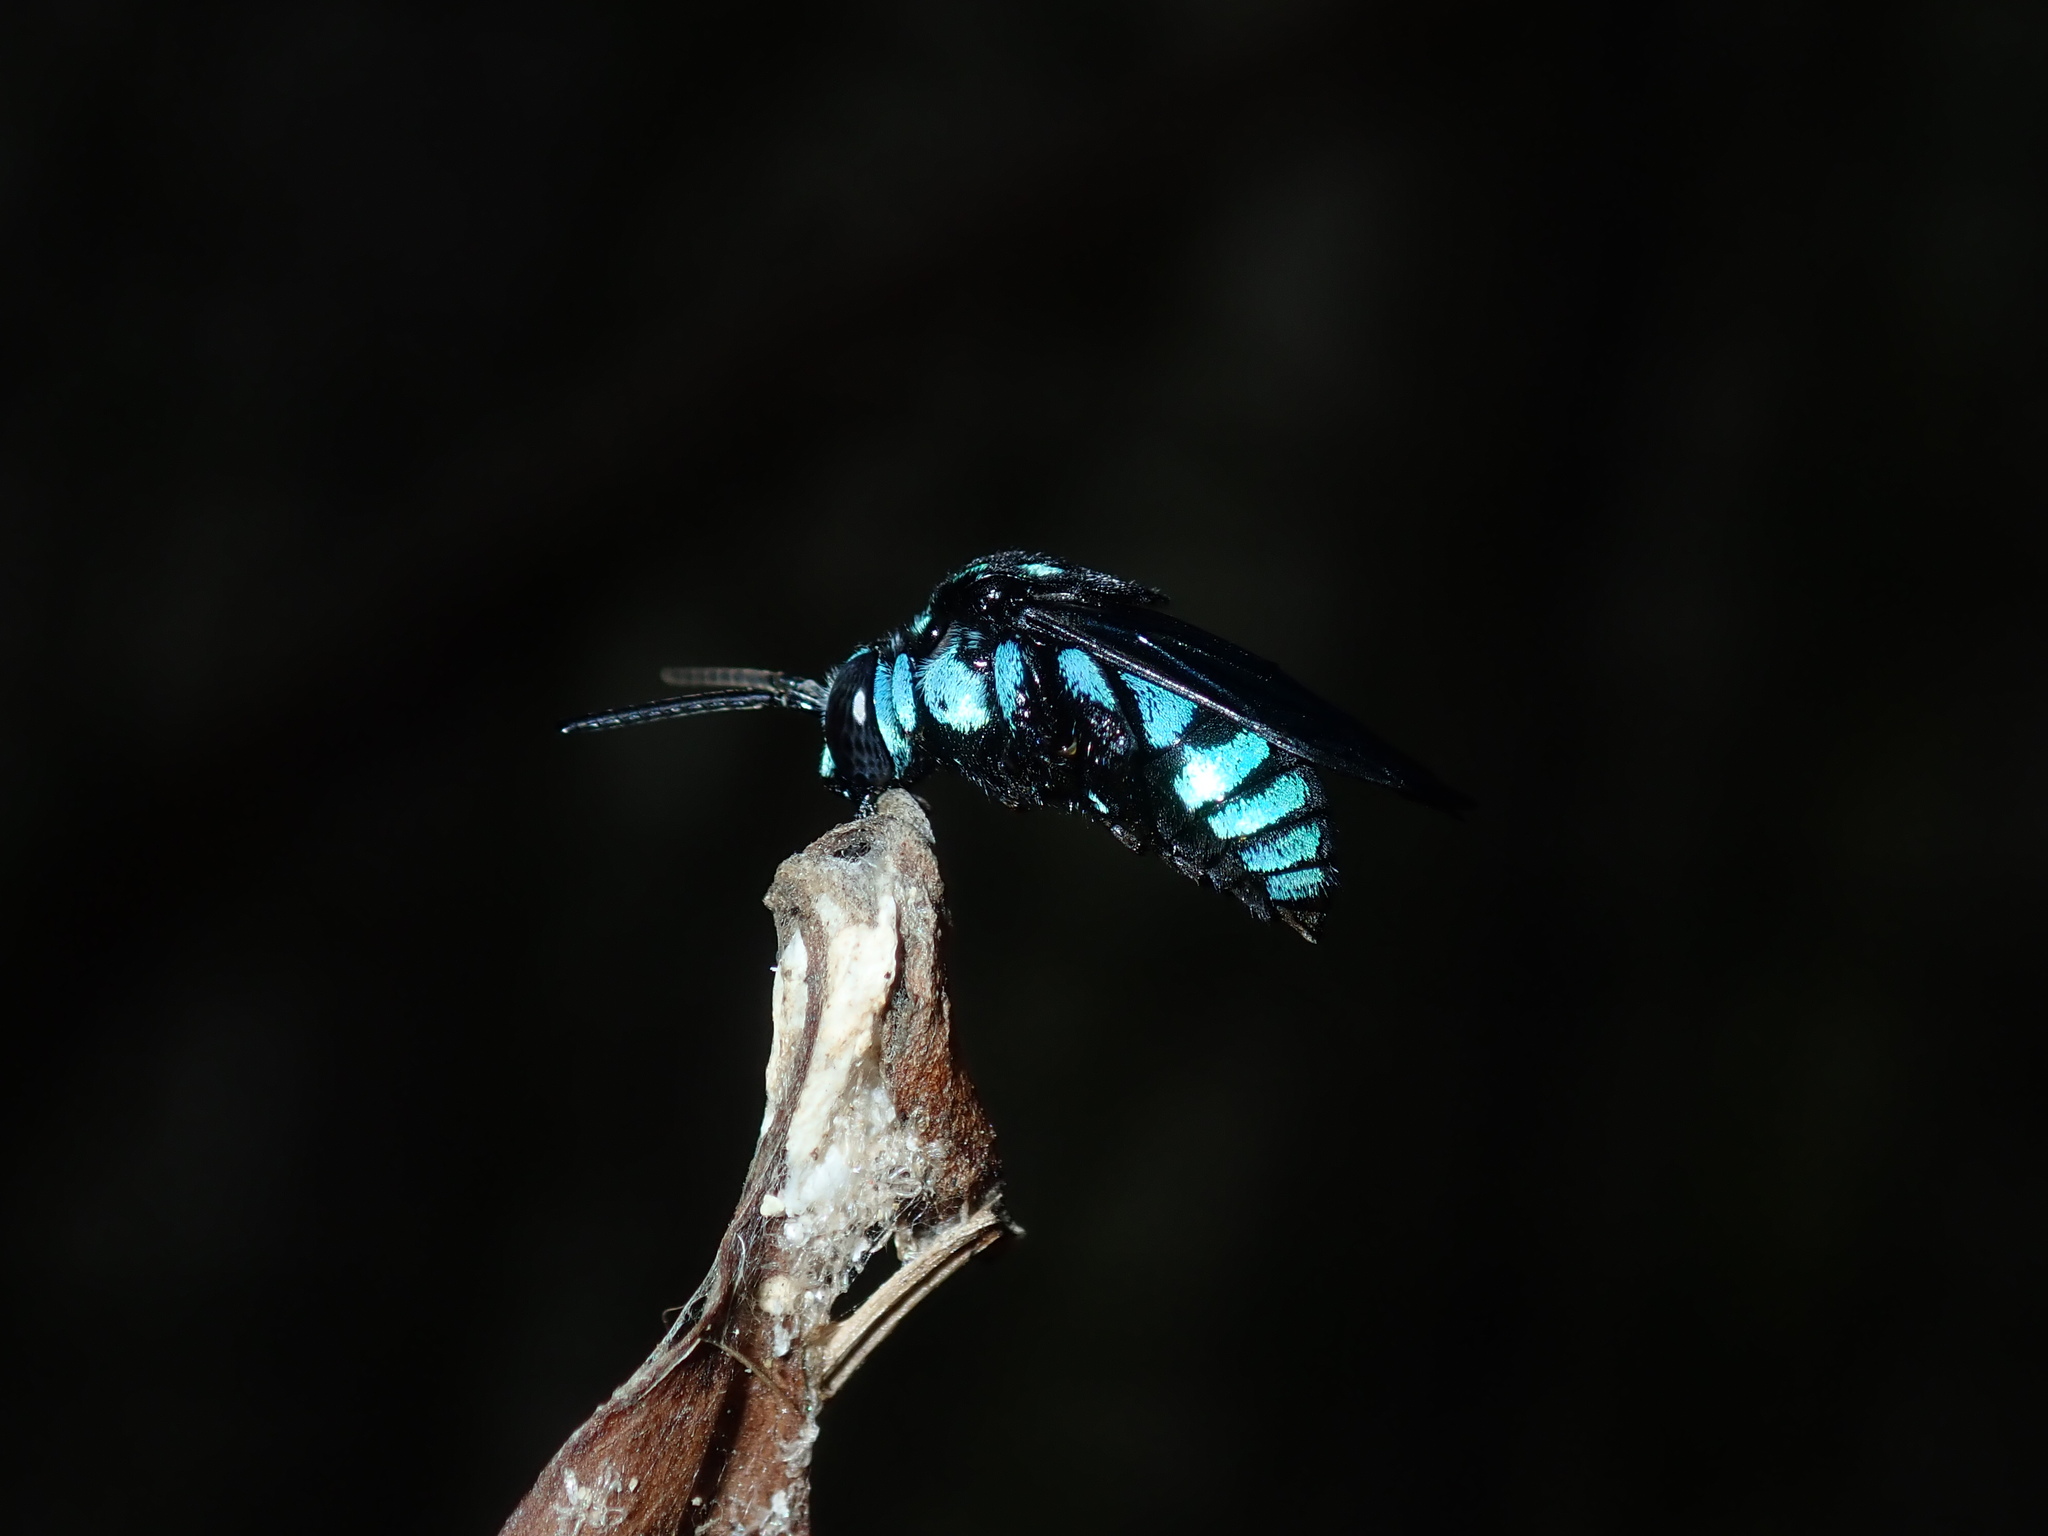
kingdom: Animalia
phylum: Arthropoda
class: Insecta
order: Hymenoptera
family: Apidae
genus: Thyreus
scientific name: Thyreus nitidulus
